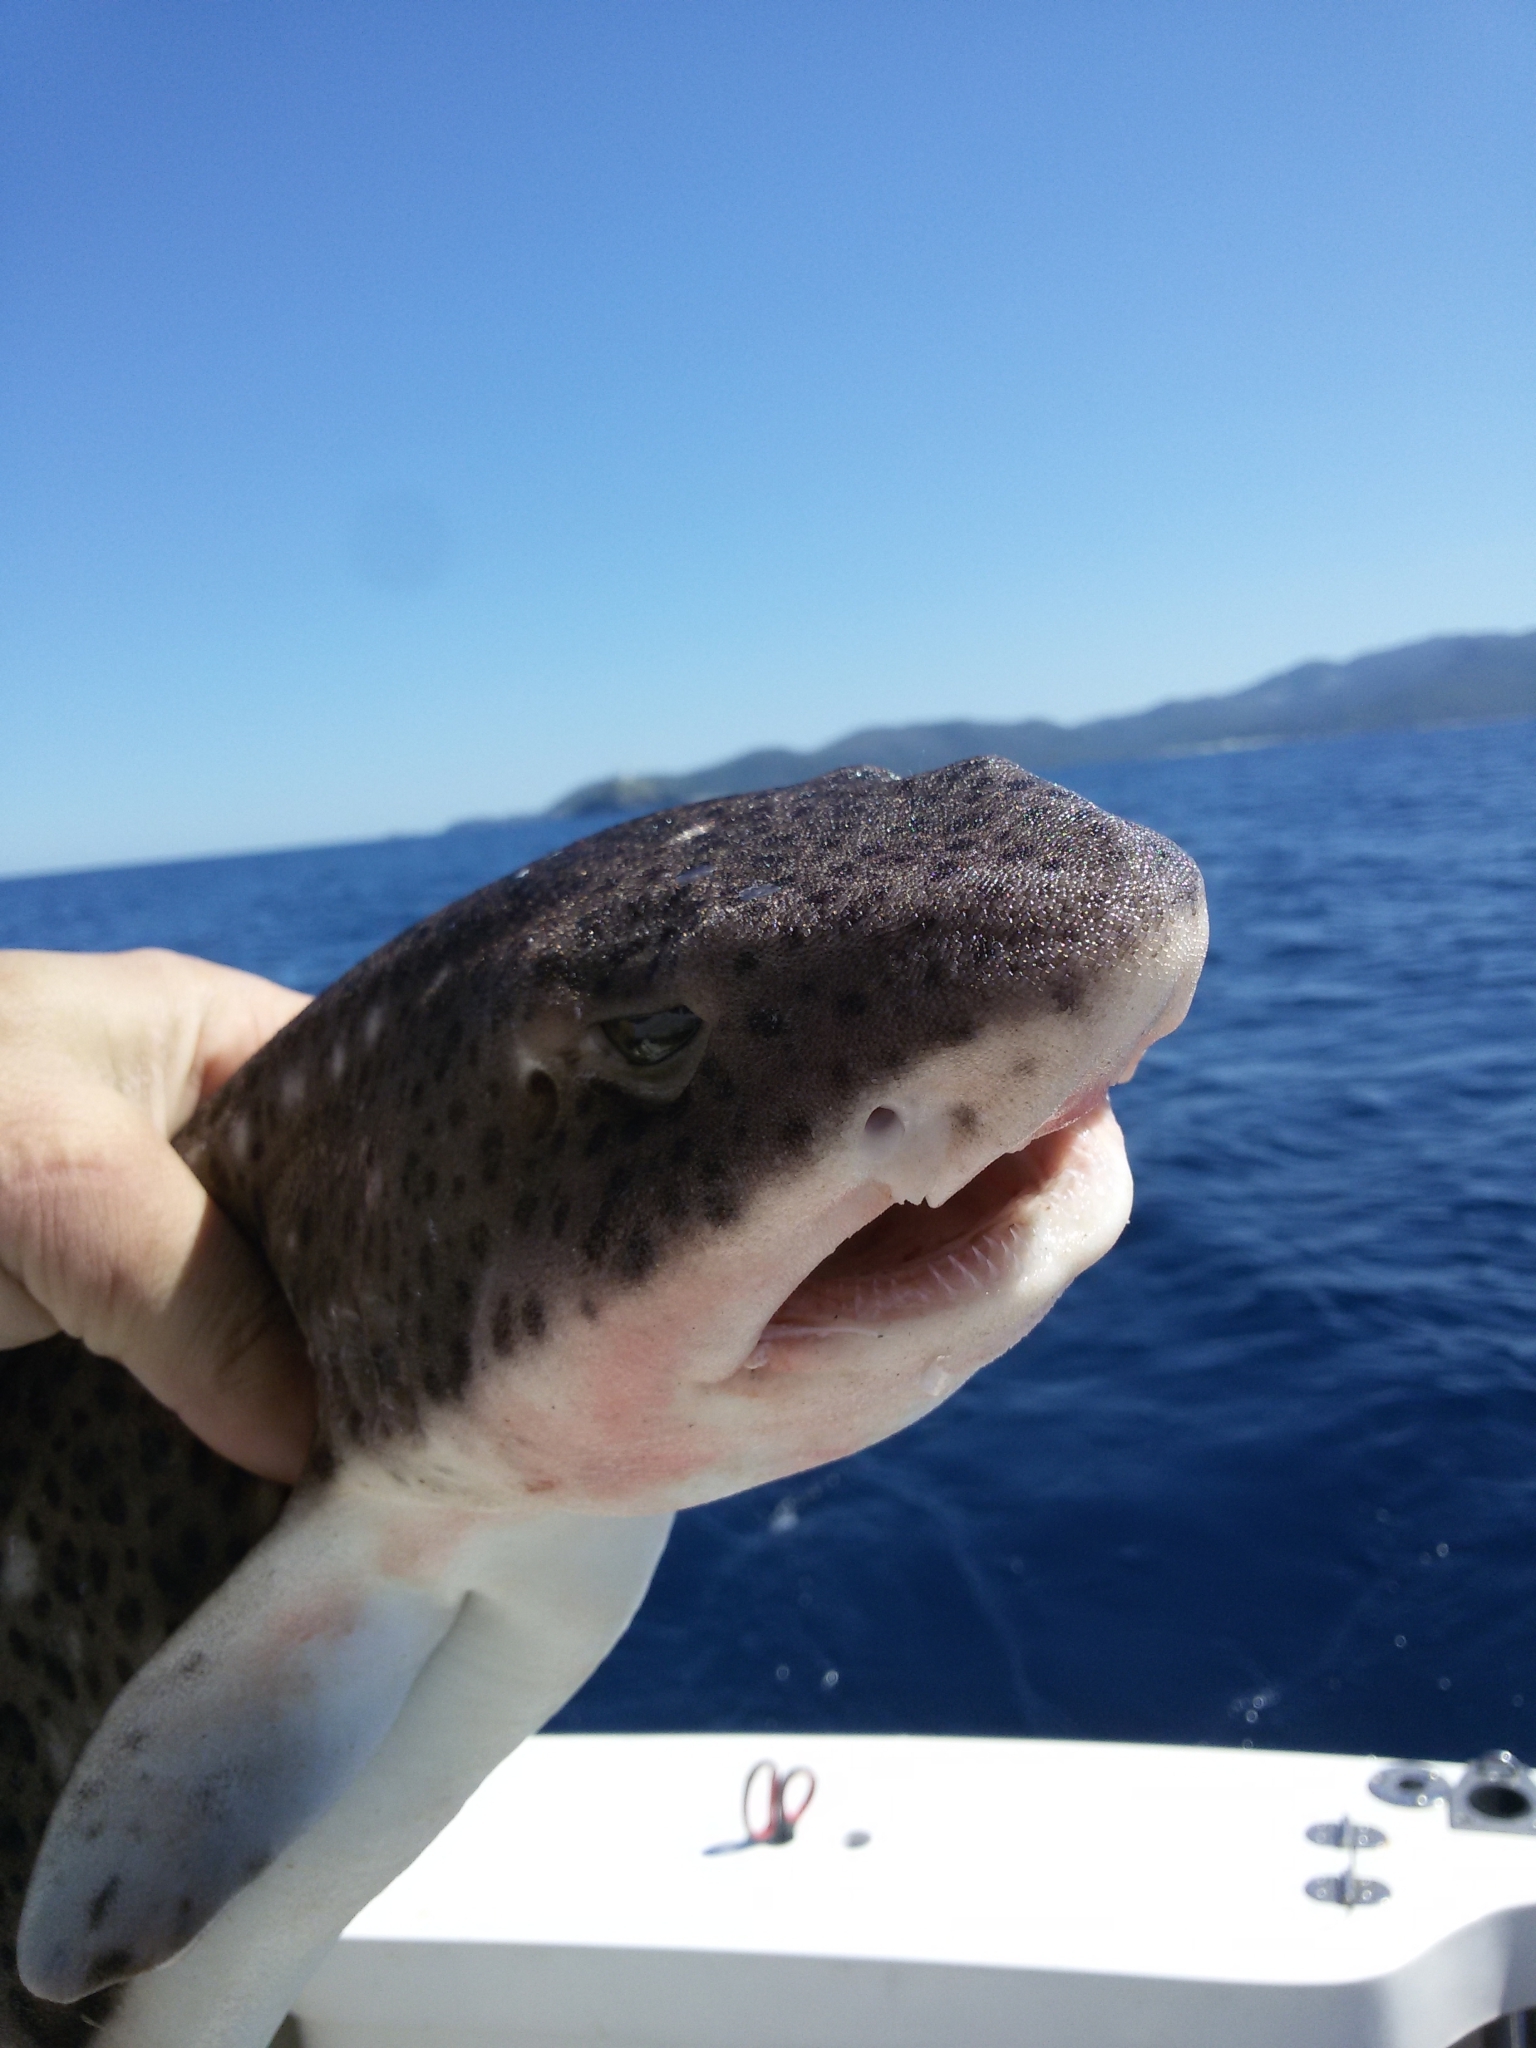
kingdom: Animalia
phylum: Chordata
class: Elasmobranchii
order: Carcharhiniformes
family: Scyliorhinidae
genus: Scyliorhinus
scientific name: Scyliorhinus stellaris
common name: Nursehound
